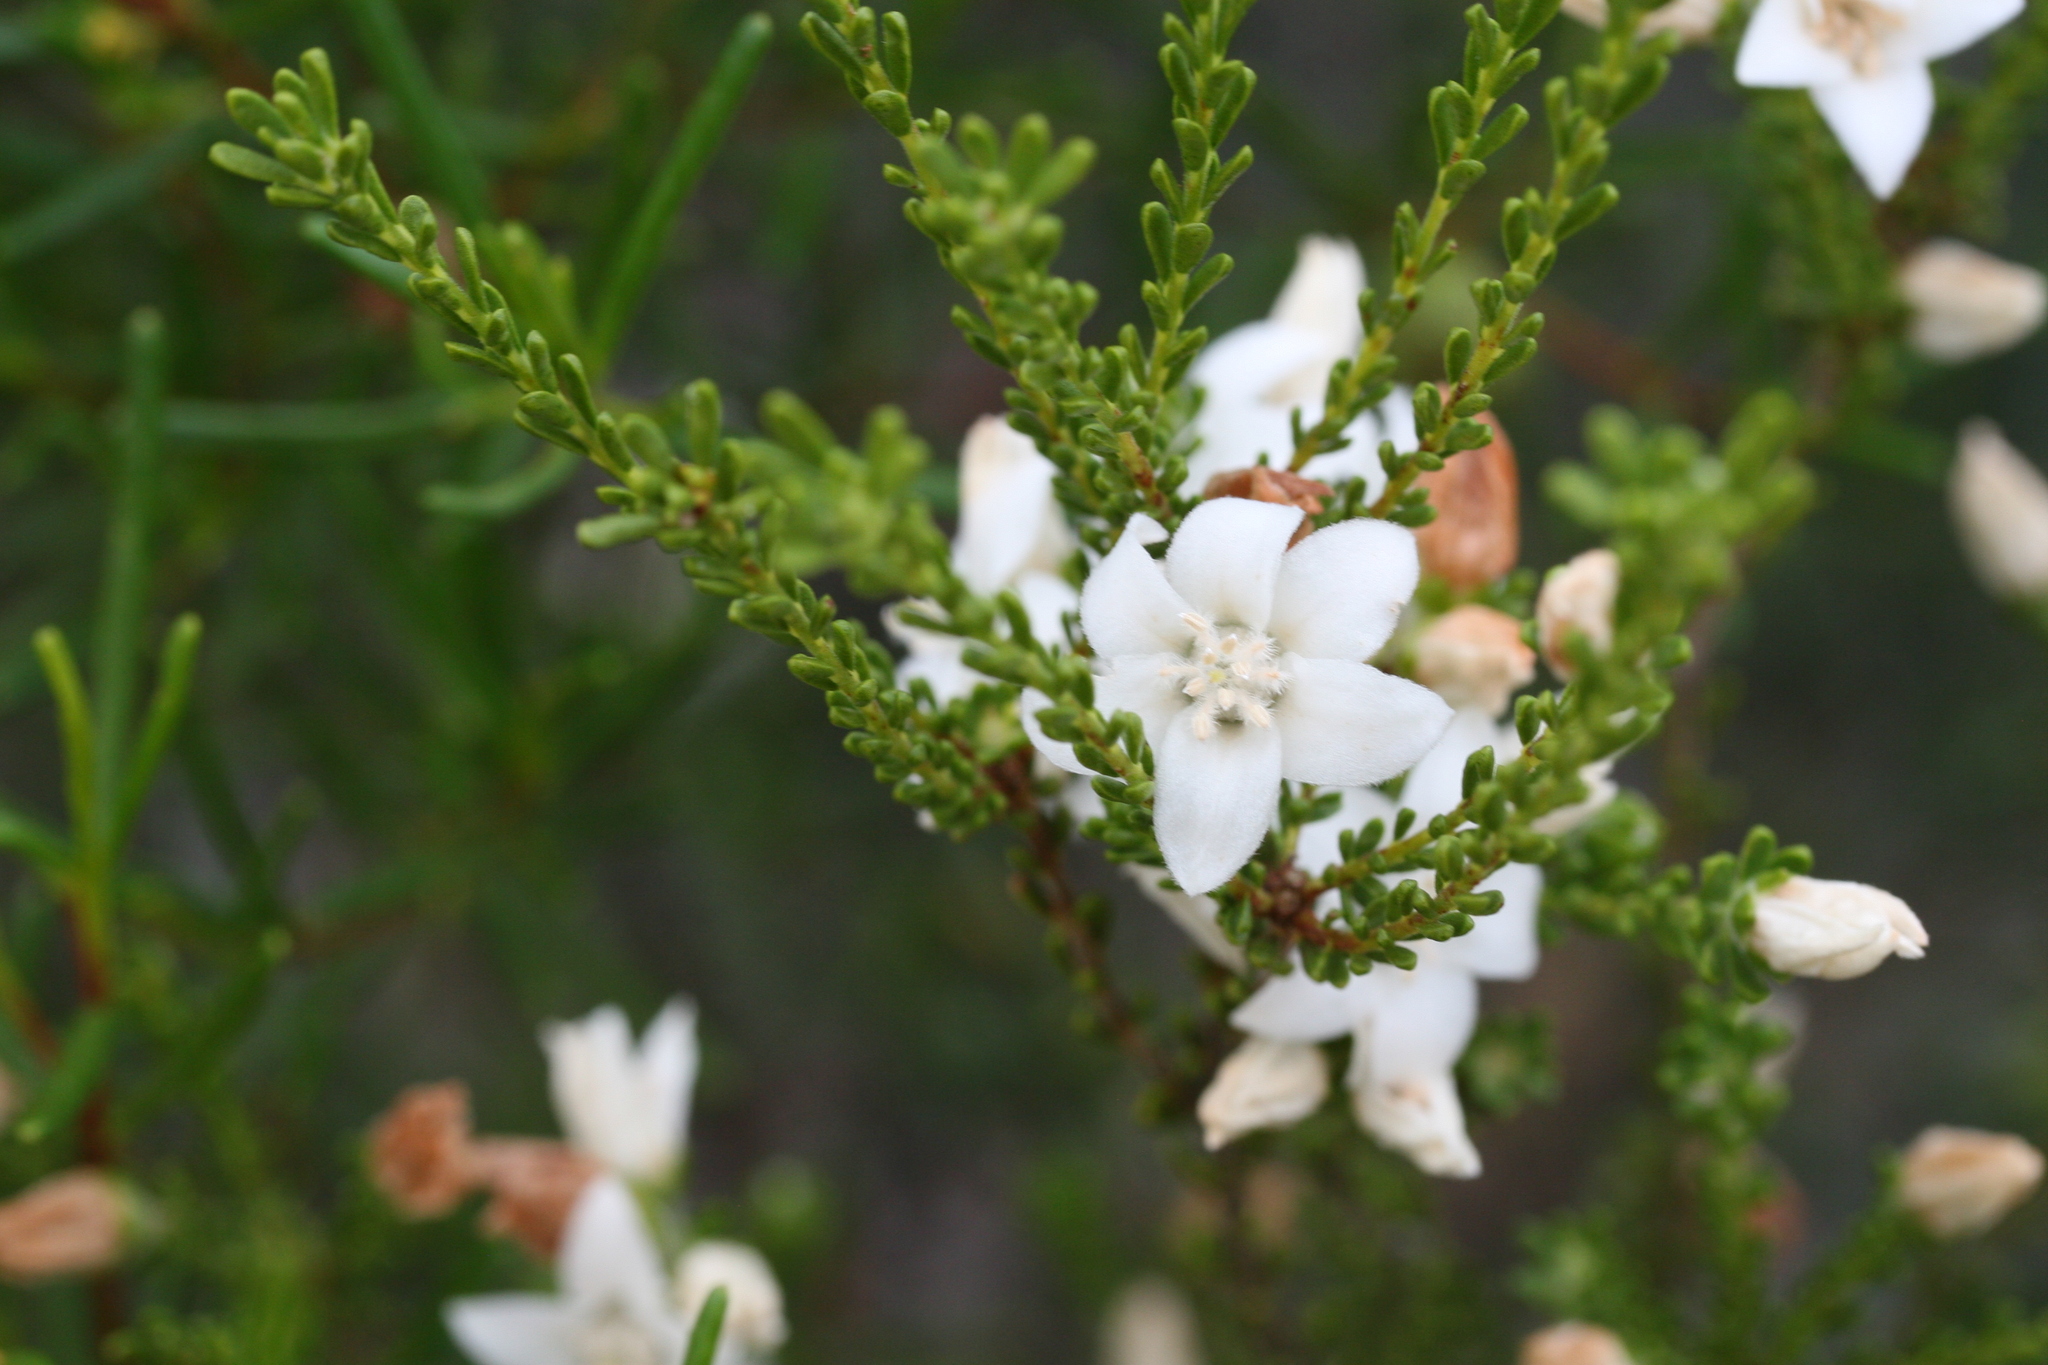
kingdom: Plantae
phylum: Tracheophyta
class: Magnoliopsida
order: Sapindales
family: Rutaceae
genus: Philotheca
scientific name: Philotheca sericea
